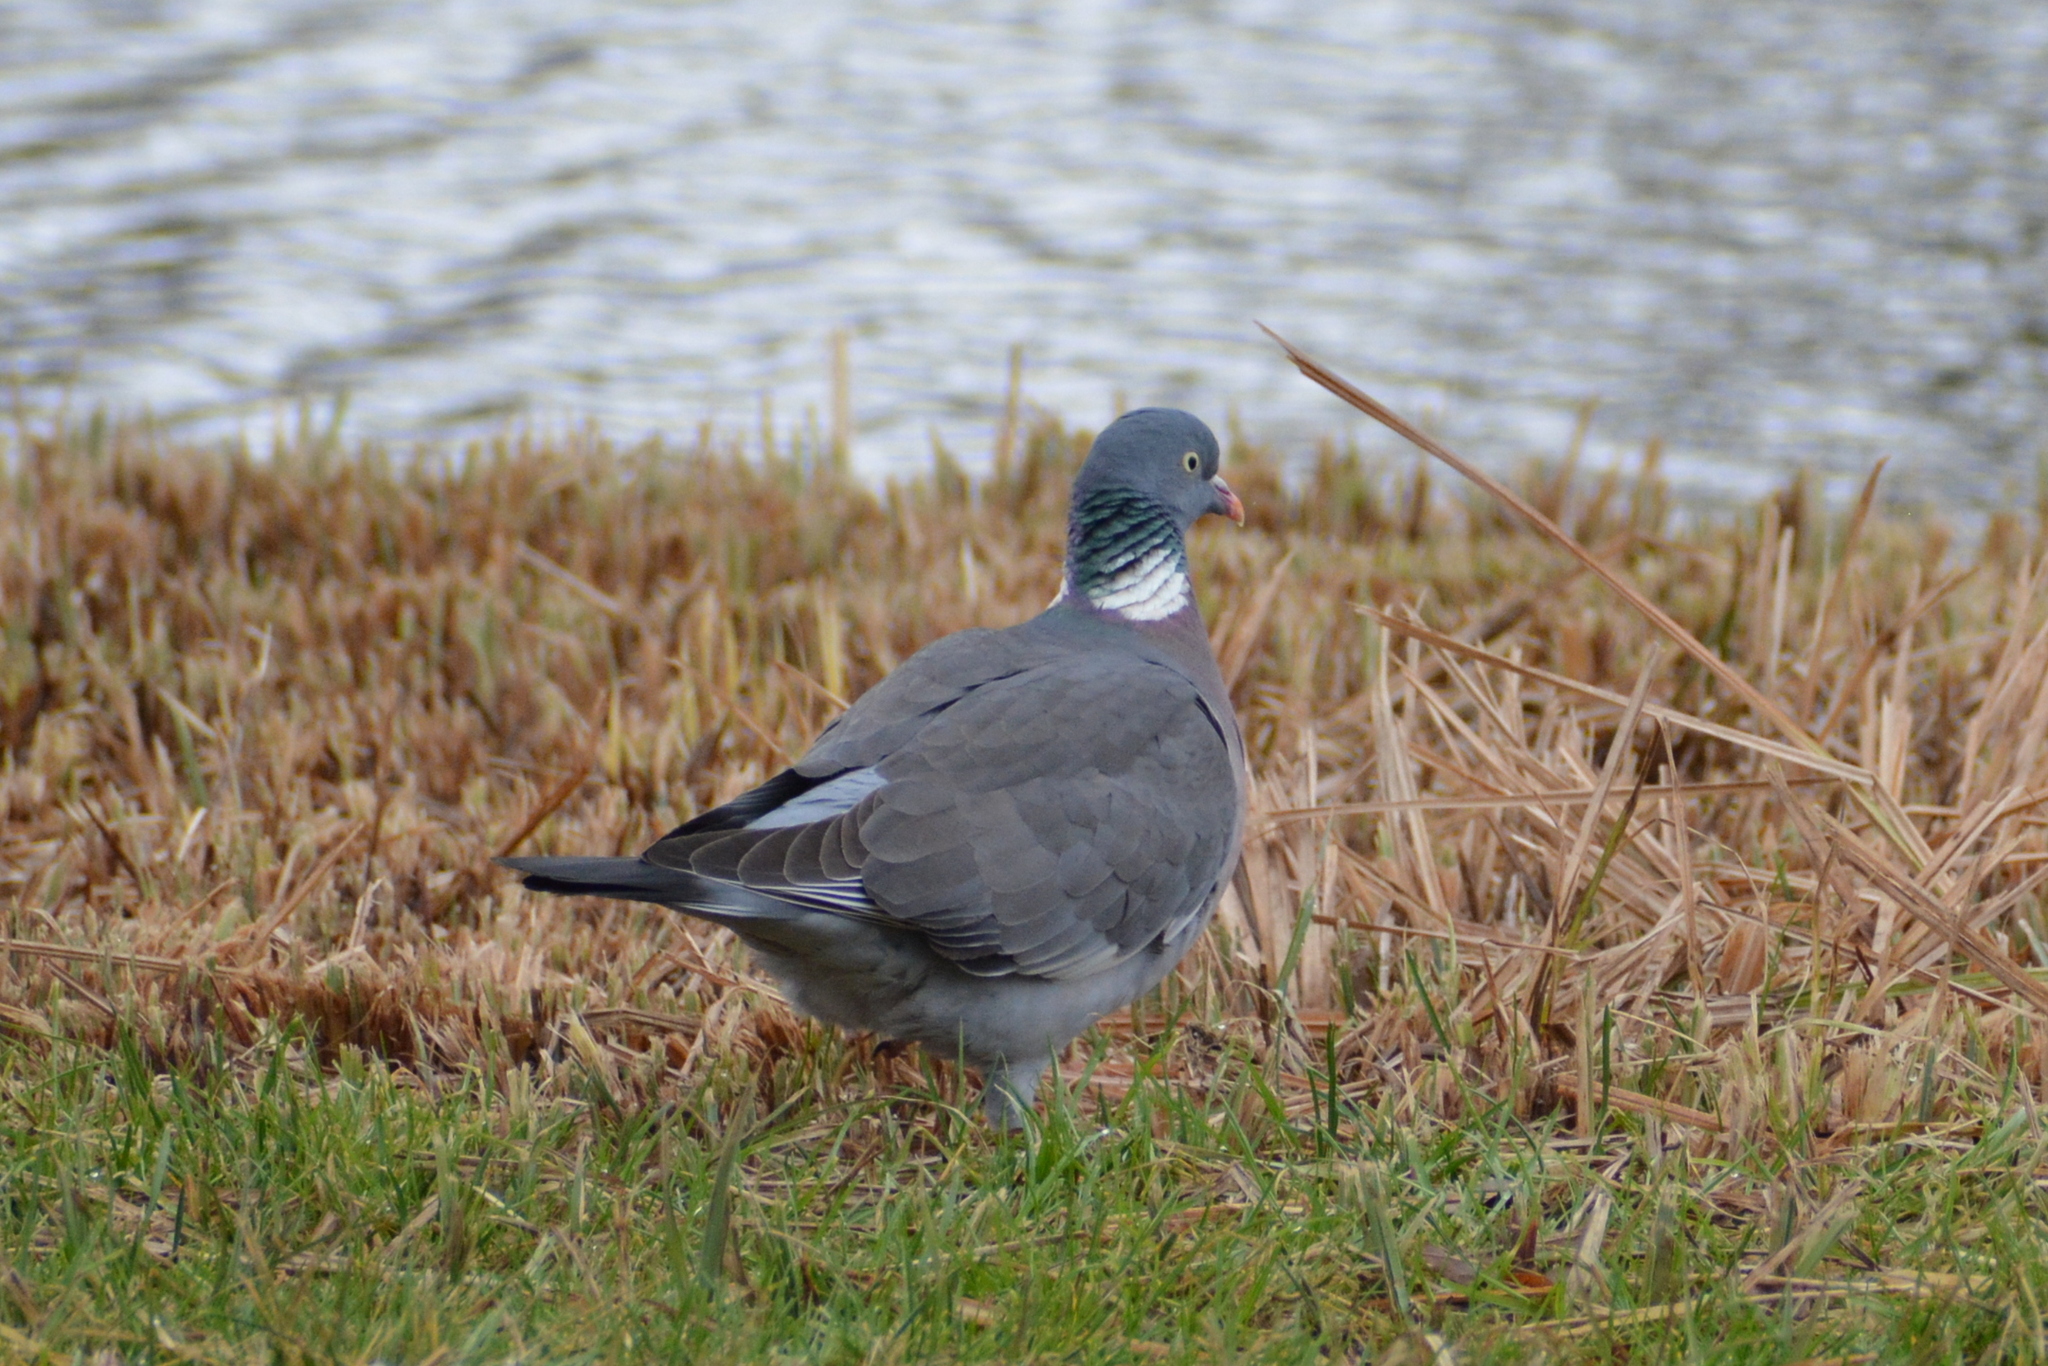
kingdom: Animalia
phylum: Chordata
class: Aves
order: Columbiformes
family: Columbidae
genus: Columba
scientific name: Columba palumbus
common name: Common wood pigeon
